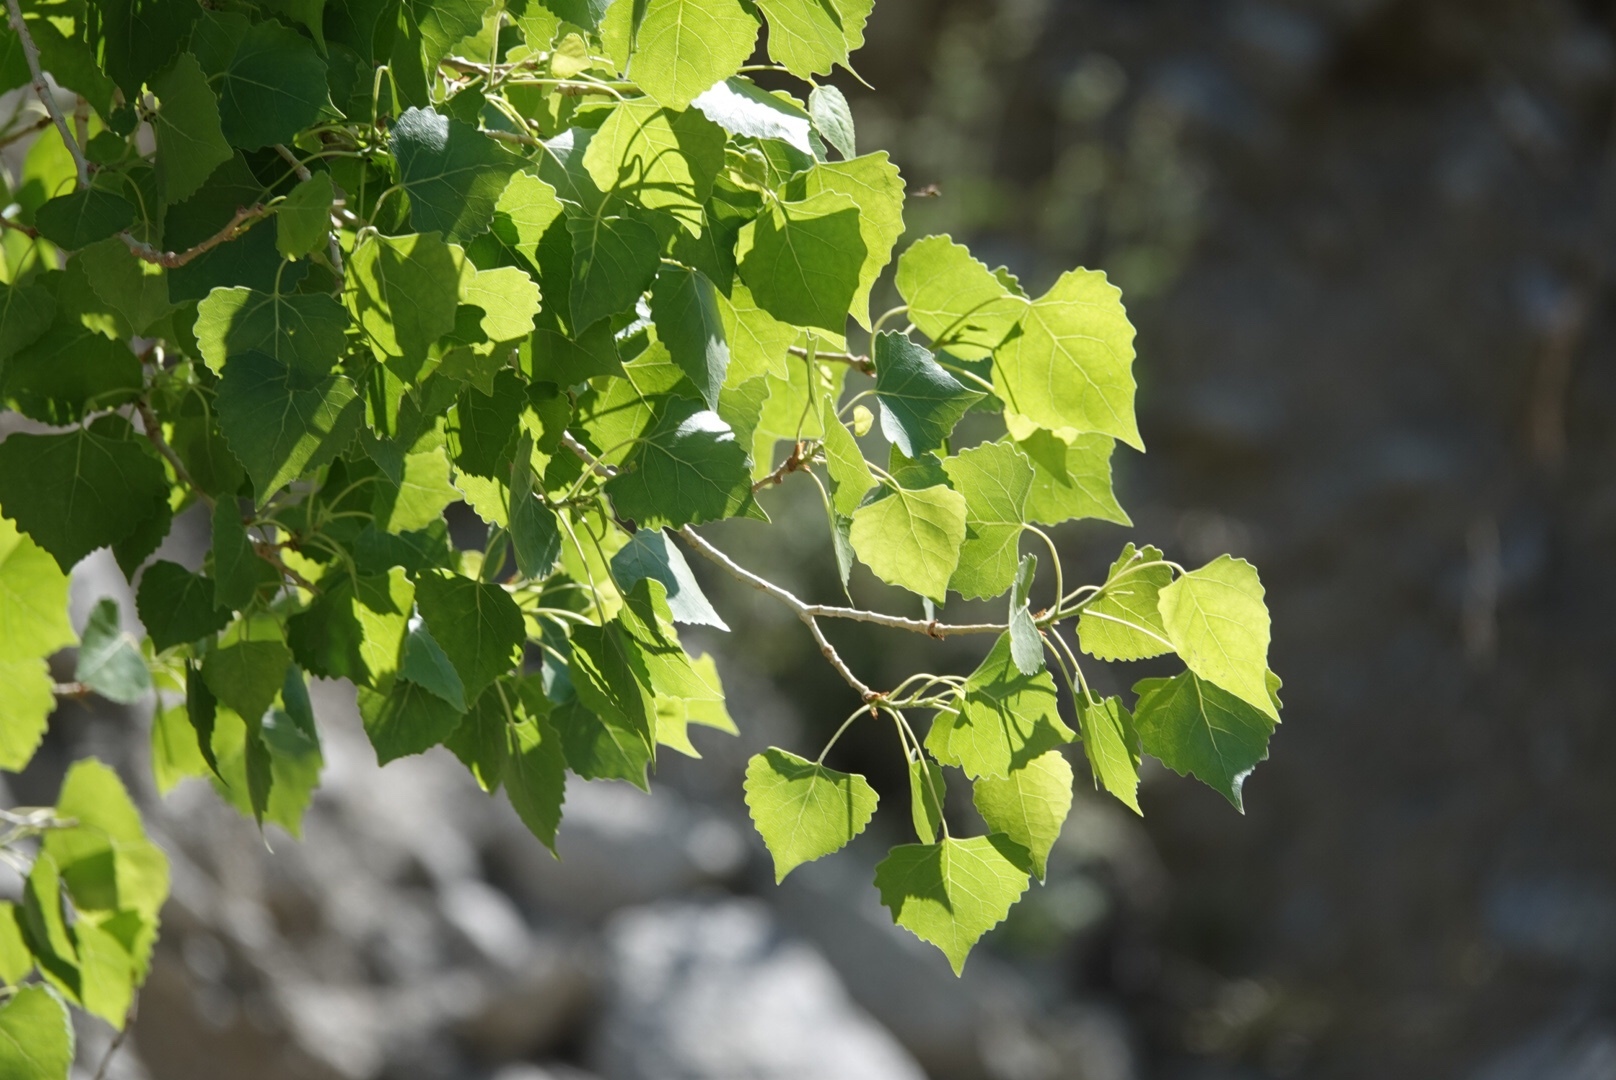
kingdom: Plantae
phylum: Tracheophyta
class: Magnoliopsida
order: Malpighiales
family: Salicaceae
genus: Populus
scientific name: Populus fremontii
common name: Fremont's cottonwood
